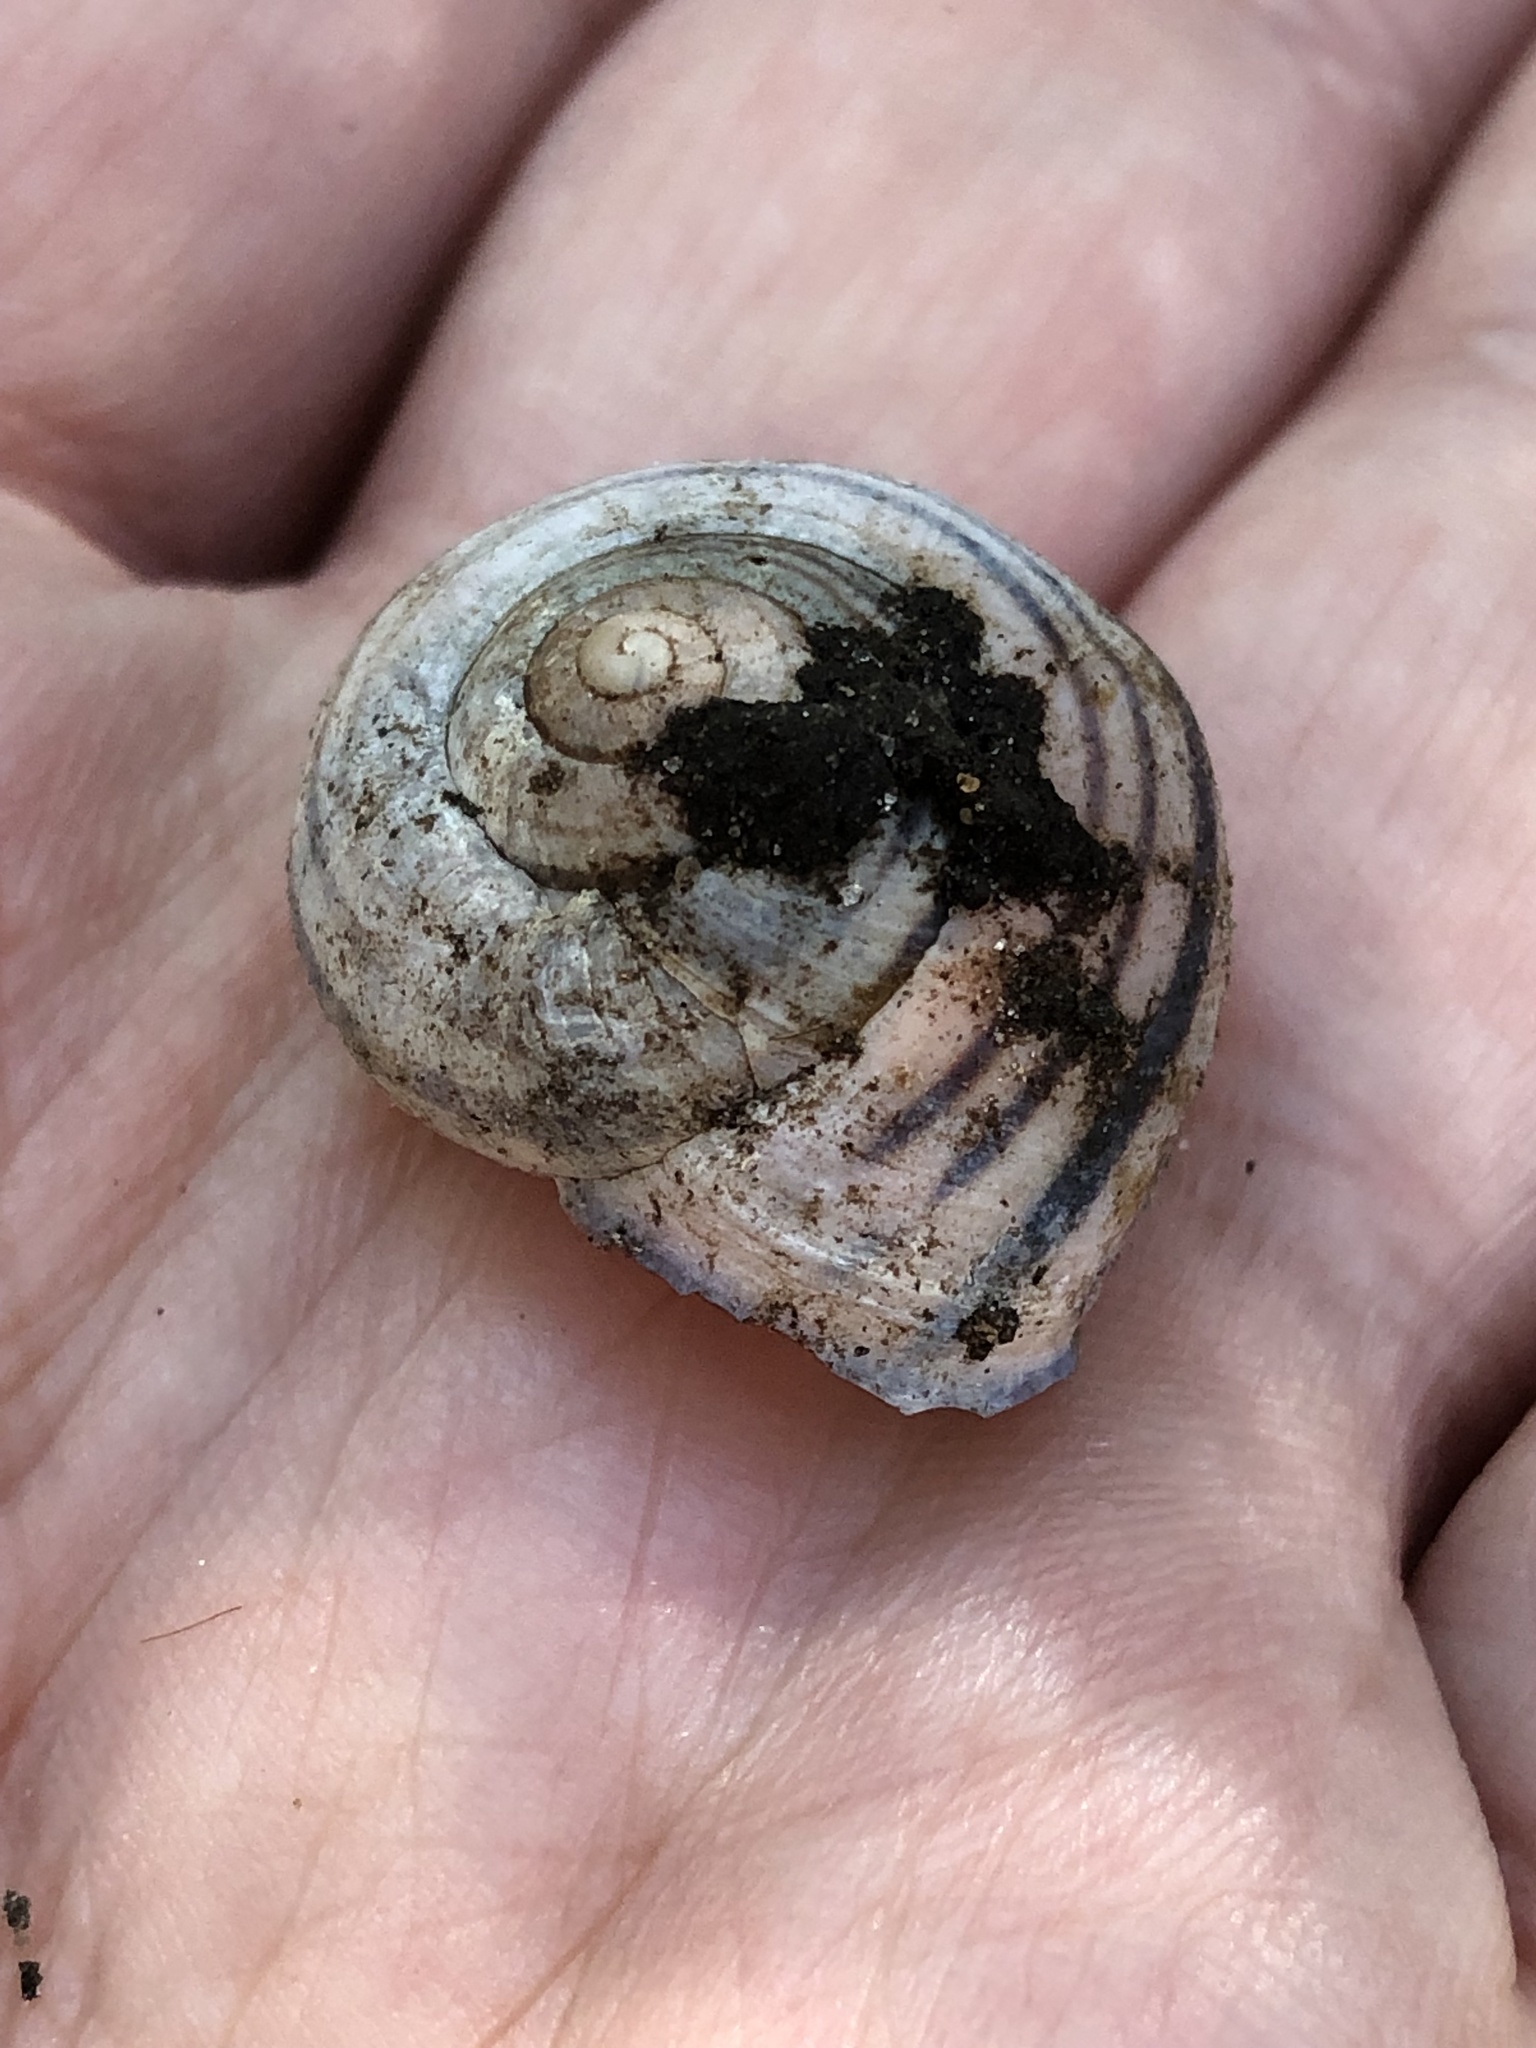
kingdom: Animalia
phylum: Mollusca
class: Gastropoda
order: Stylommatophora
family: Helicidae
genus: Cepaea
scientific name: Cepaea nemoralis
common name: Grovesnail
